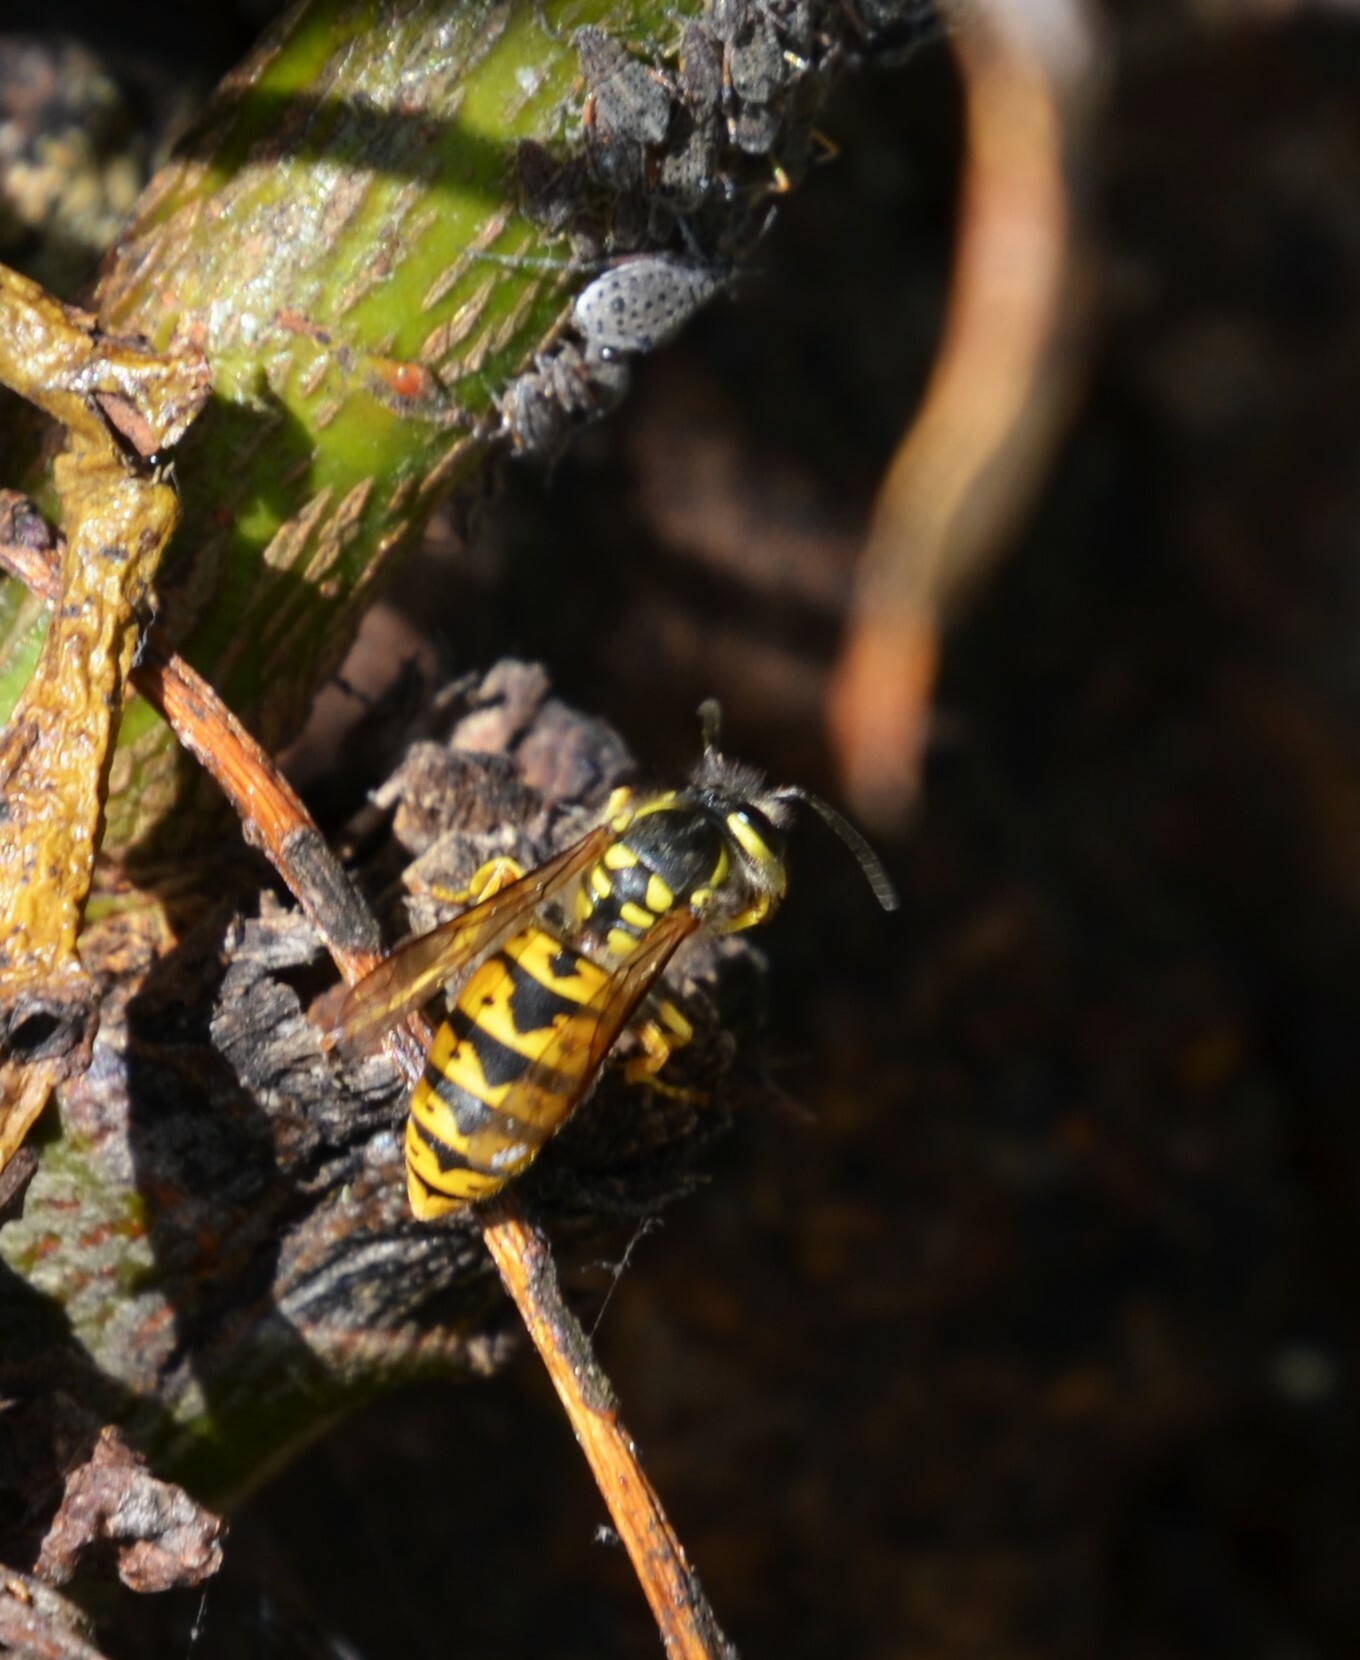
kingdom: Animalia
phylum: Arthropoda
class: Insecta
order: Hymenoptera
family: Vespidae
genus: Vespula
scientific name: Vespula germanica
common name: German wasp
